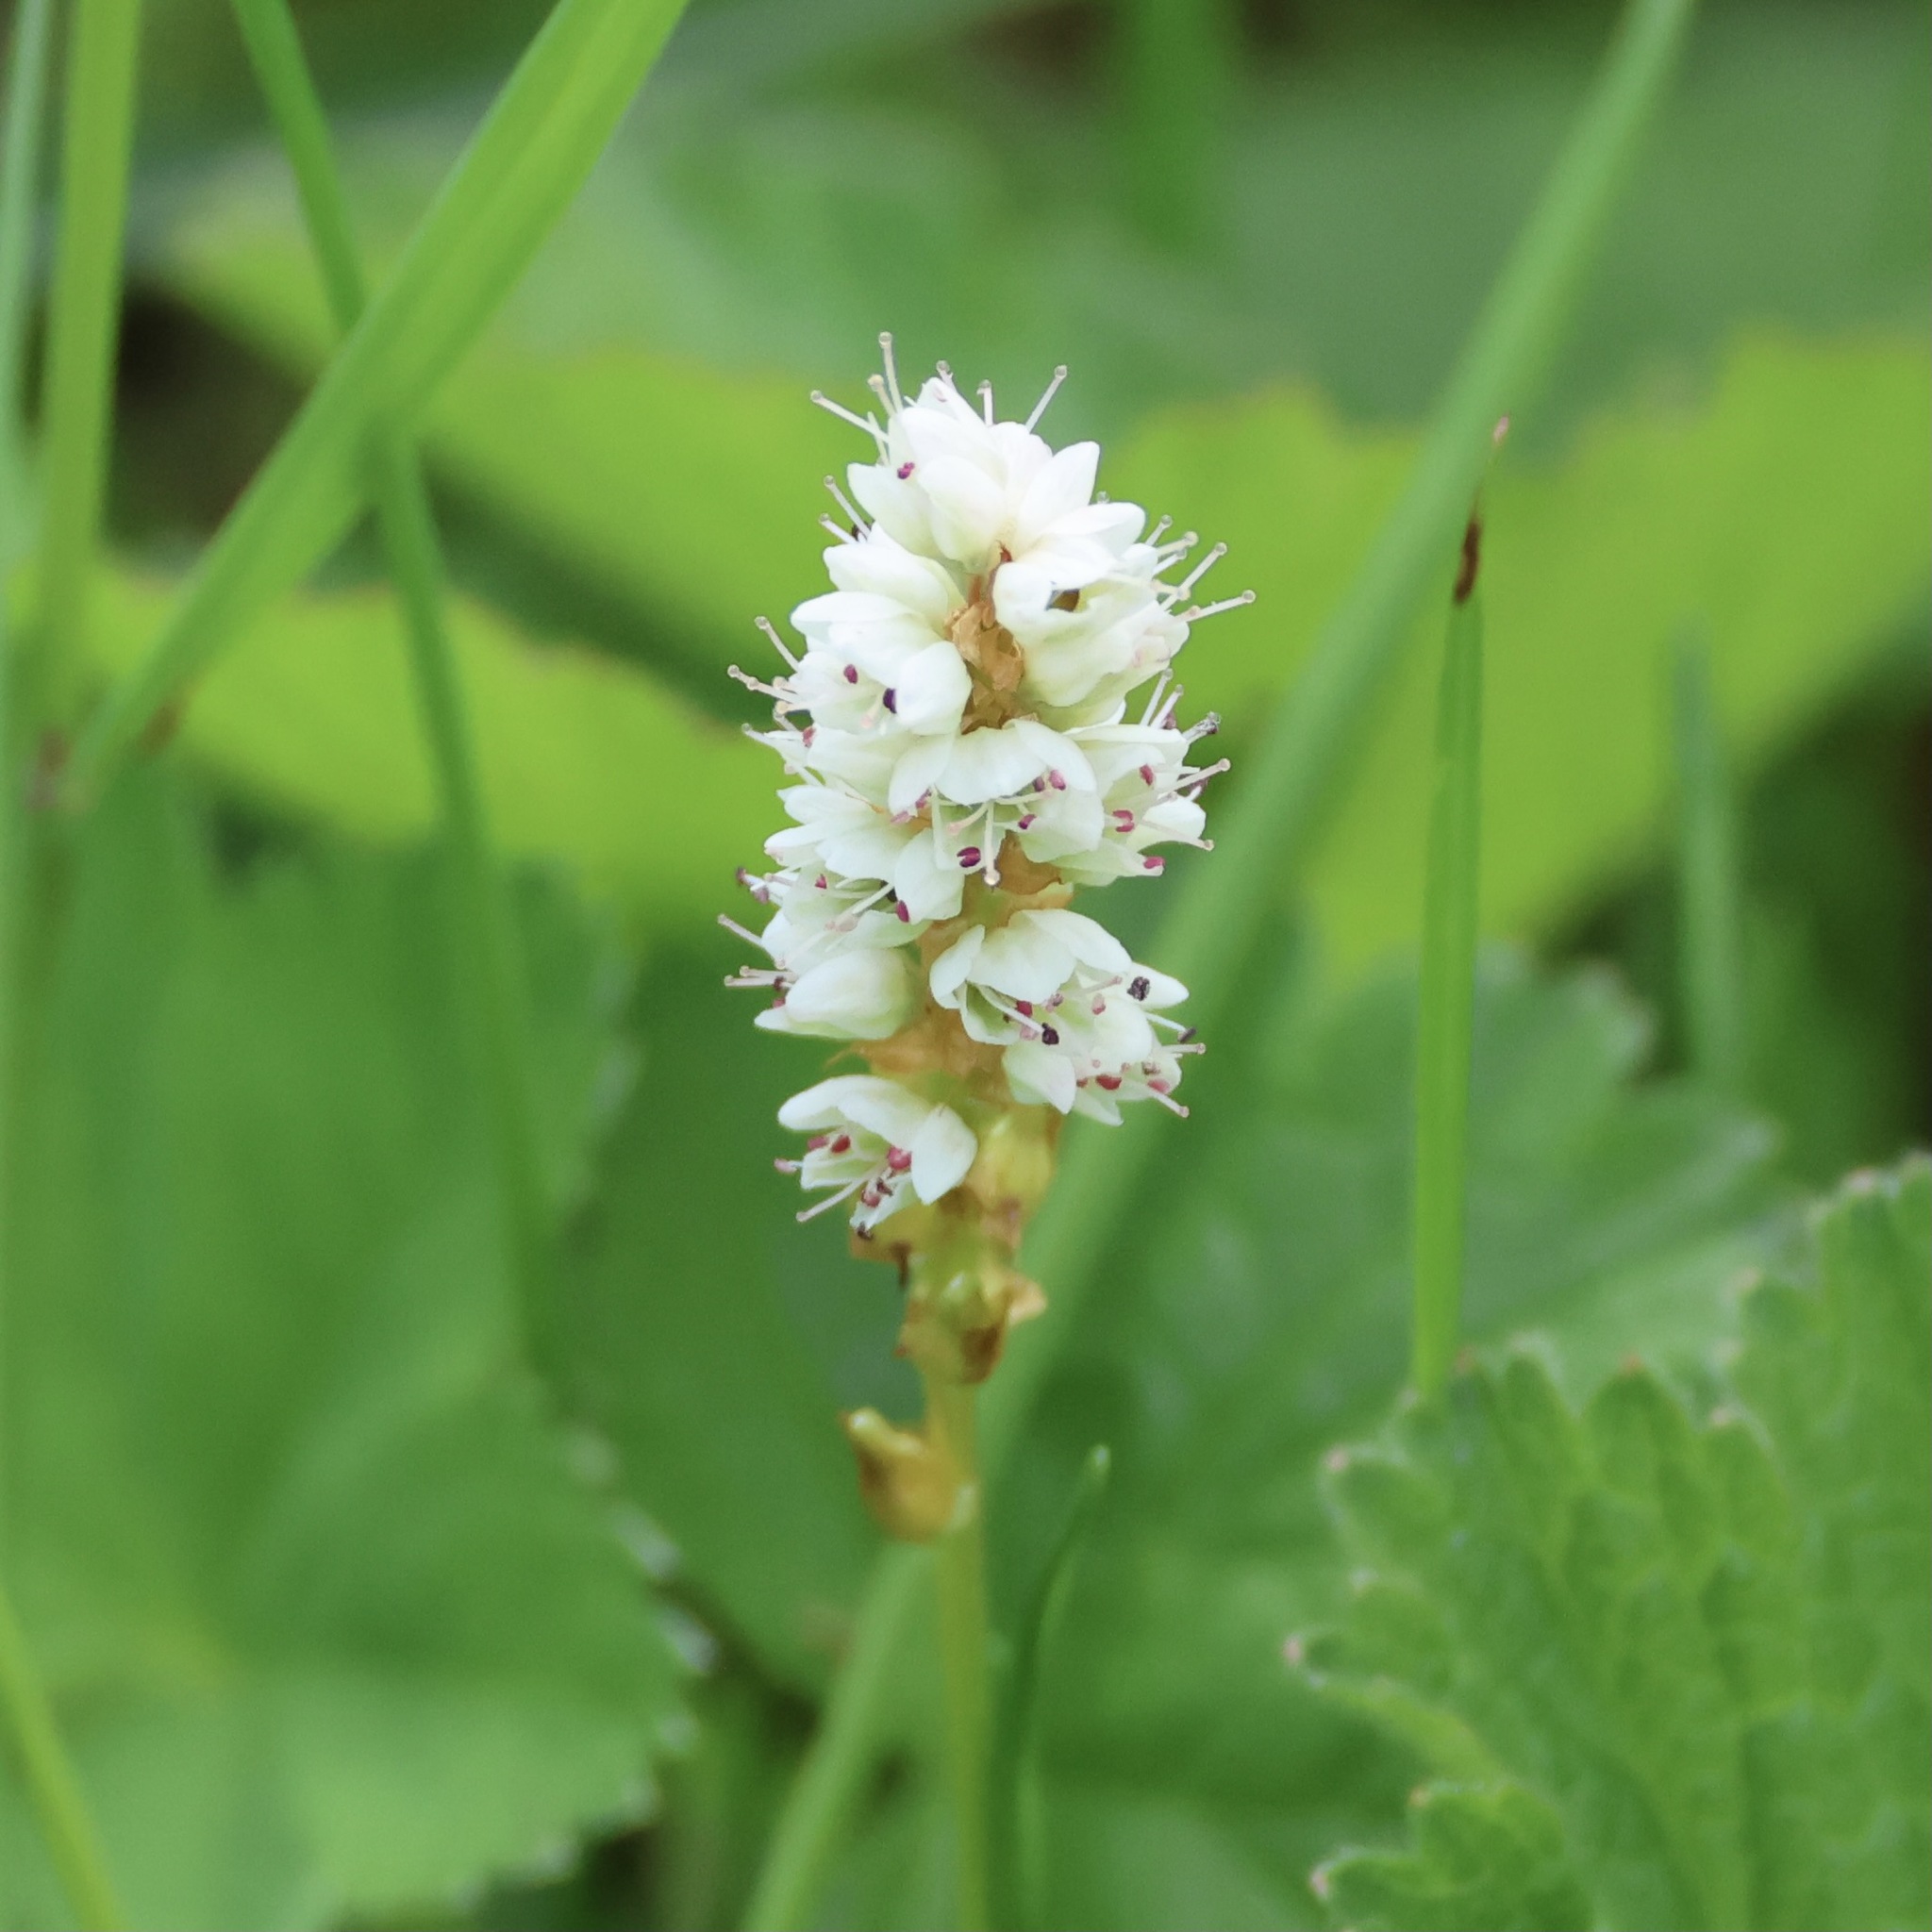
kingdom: Plantae
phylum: Tracheophyta
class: Magnoliopsida
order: Caryophyllales
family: Polygonaceae
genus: Bistorta
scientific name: Bistorta vivipara
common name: Alpine bistort
